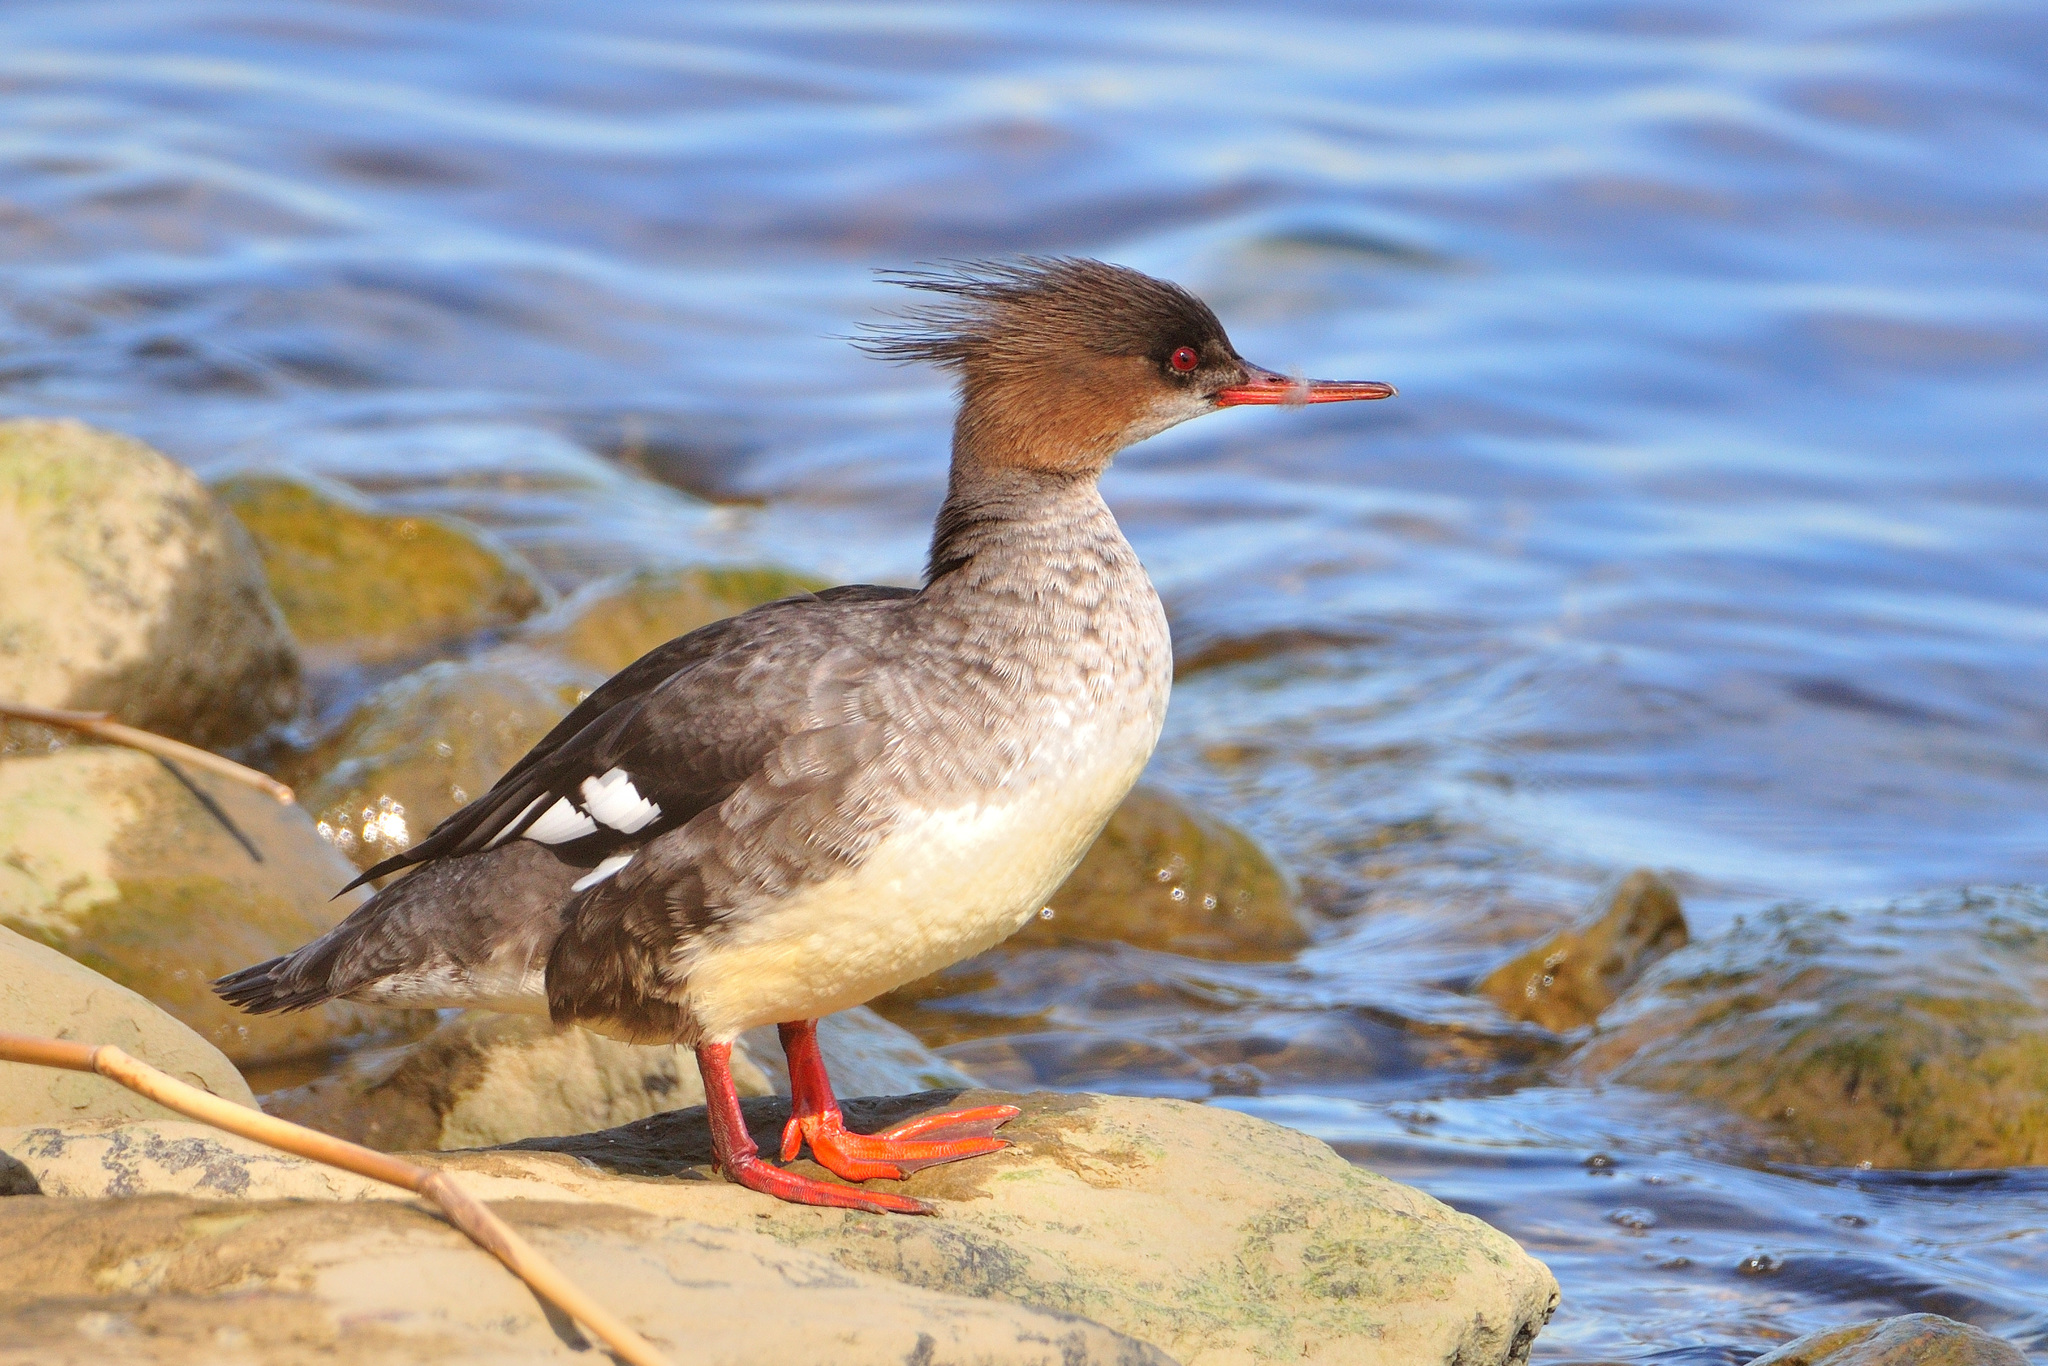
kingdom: Animalia
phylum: Chordata
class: Aves
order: Anseriformes
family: Anatidae
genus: Mergus
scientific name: Mergus serrator
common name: Red-breasted merganser
